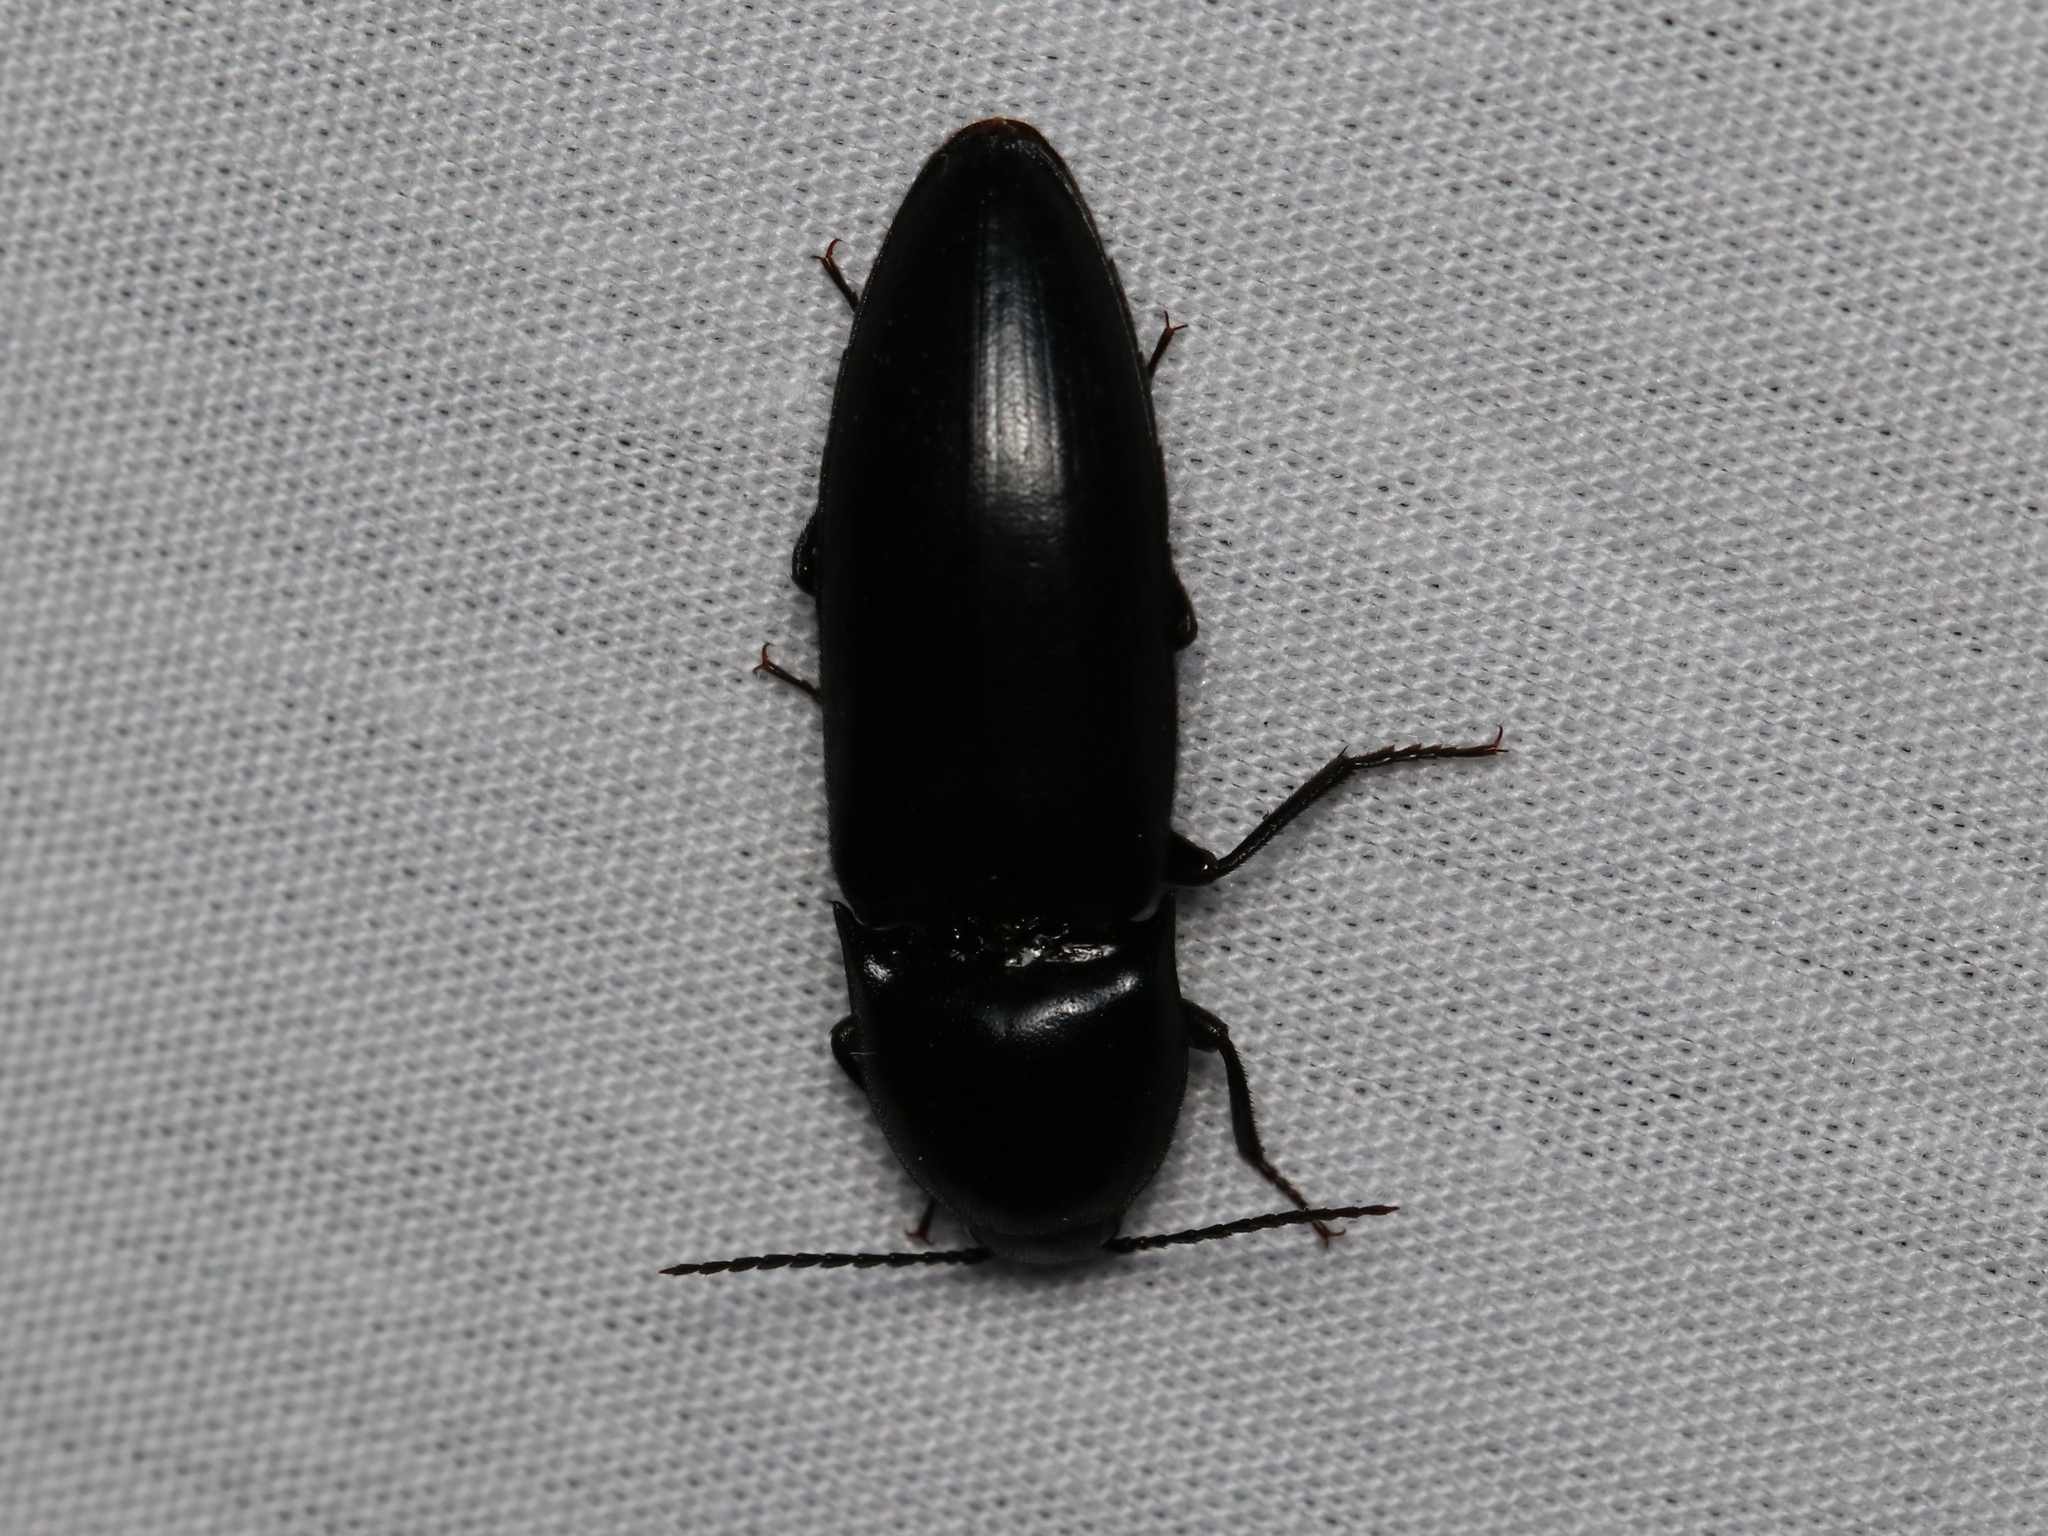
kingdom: Animalia
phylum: Arthropoda
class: Insecta
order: Coleoptera
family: Elateridae
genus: Elater
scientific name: Elater abruptus
